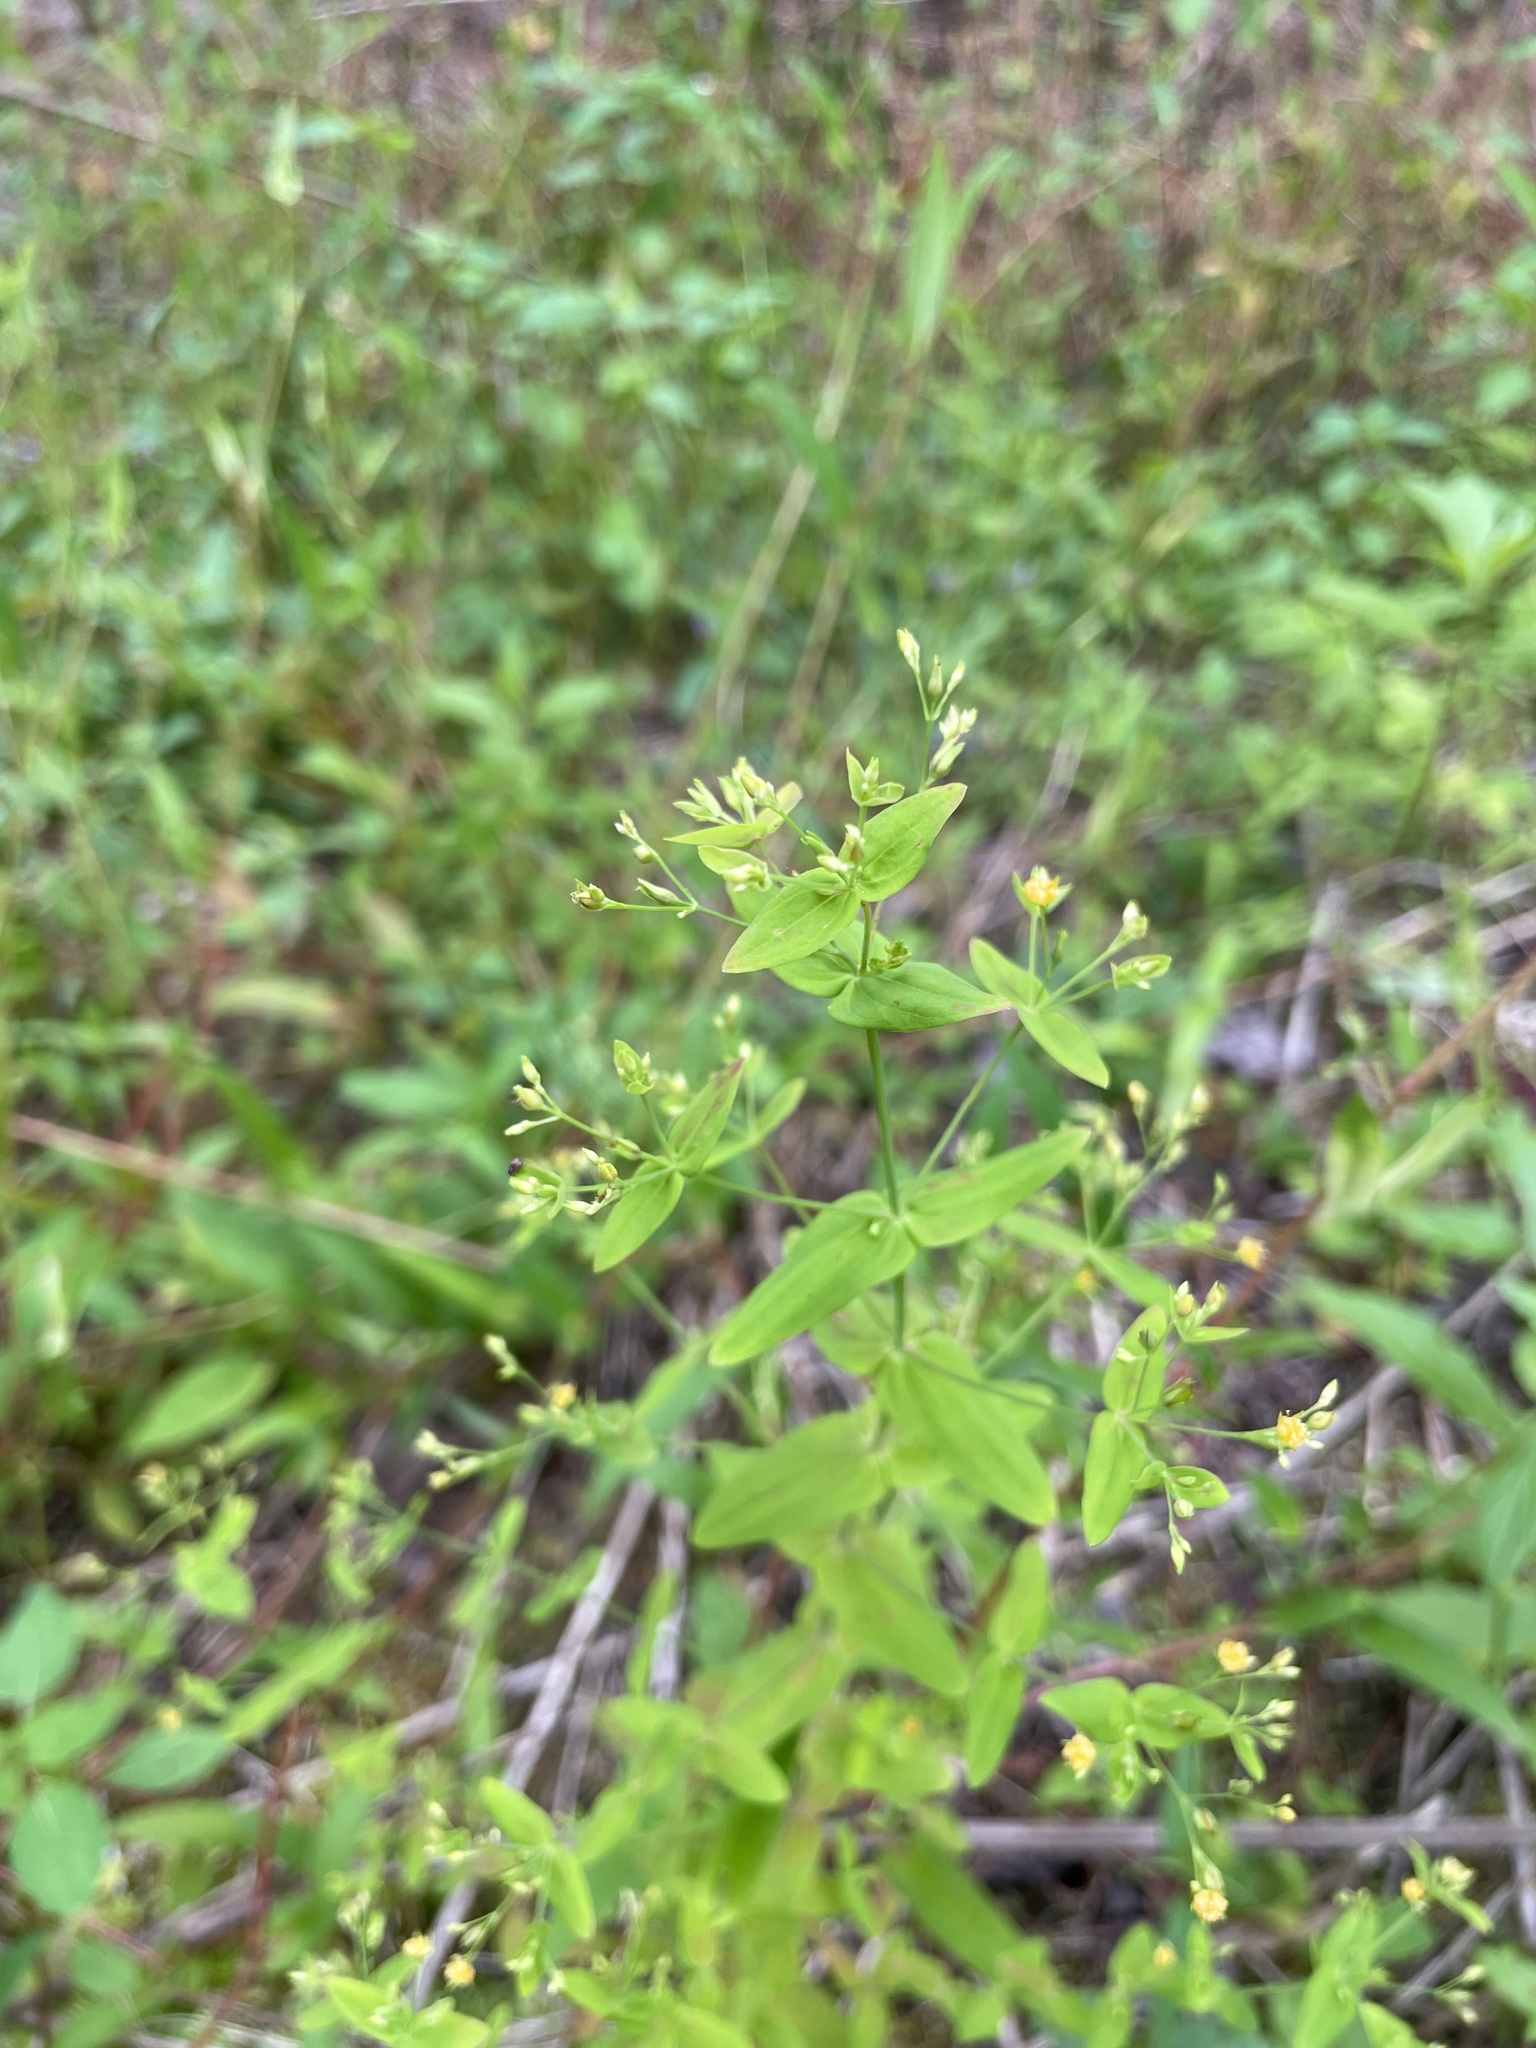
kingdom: Plantae
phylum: Tracheophyta
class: Magnoliopsida
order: Malpighiales
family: Hypericaceae
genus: Hypericum
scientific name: Hypericum mutilum
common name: Dwarf st. john's-wort
